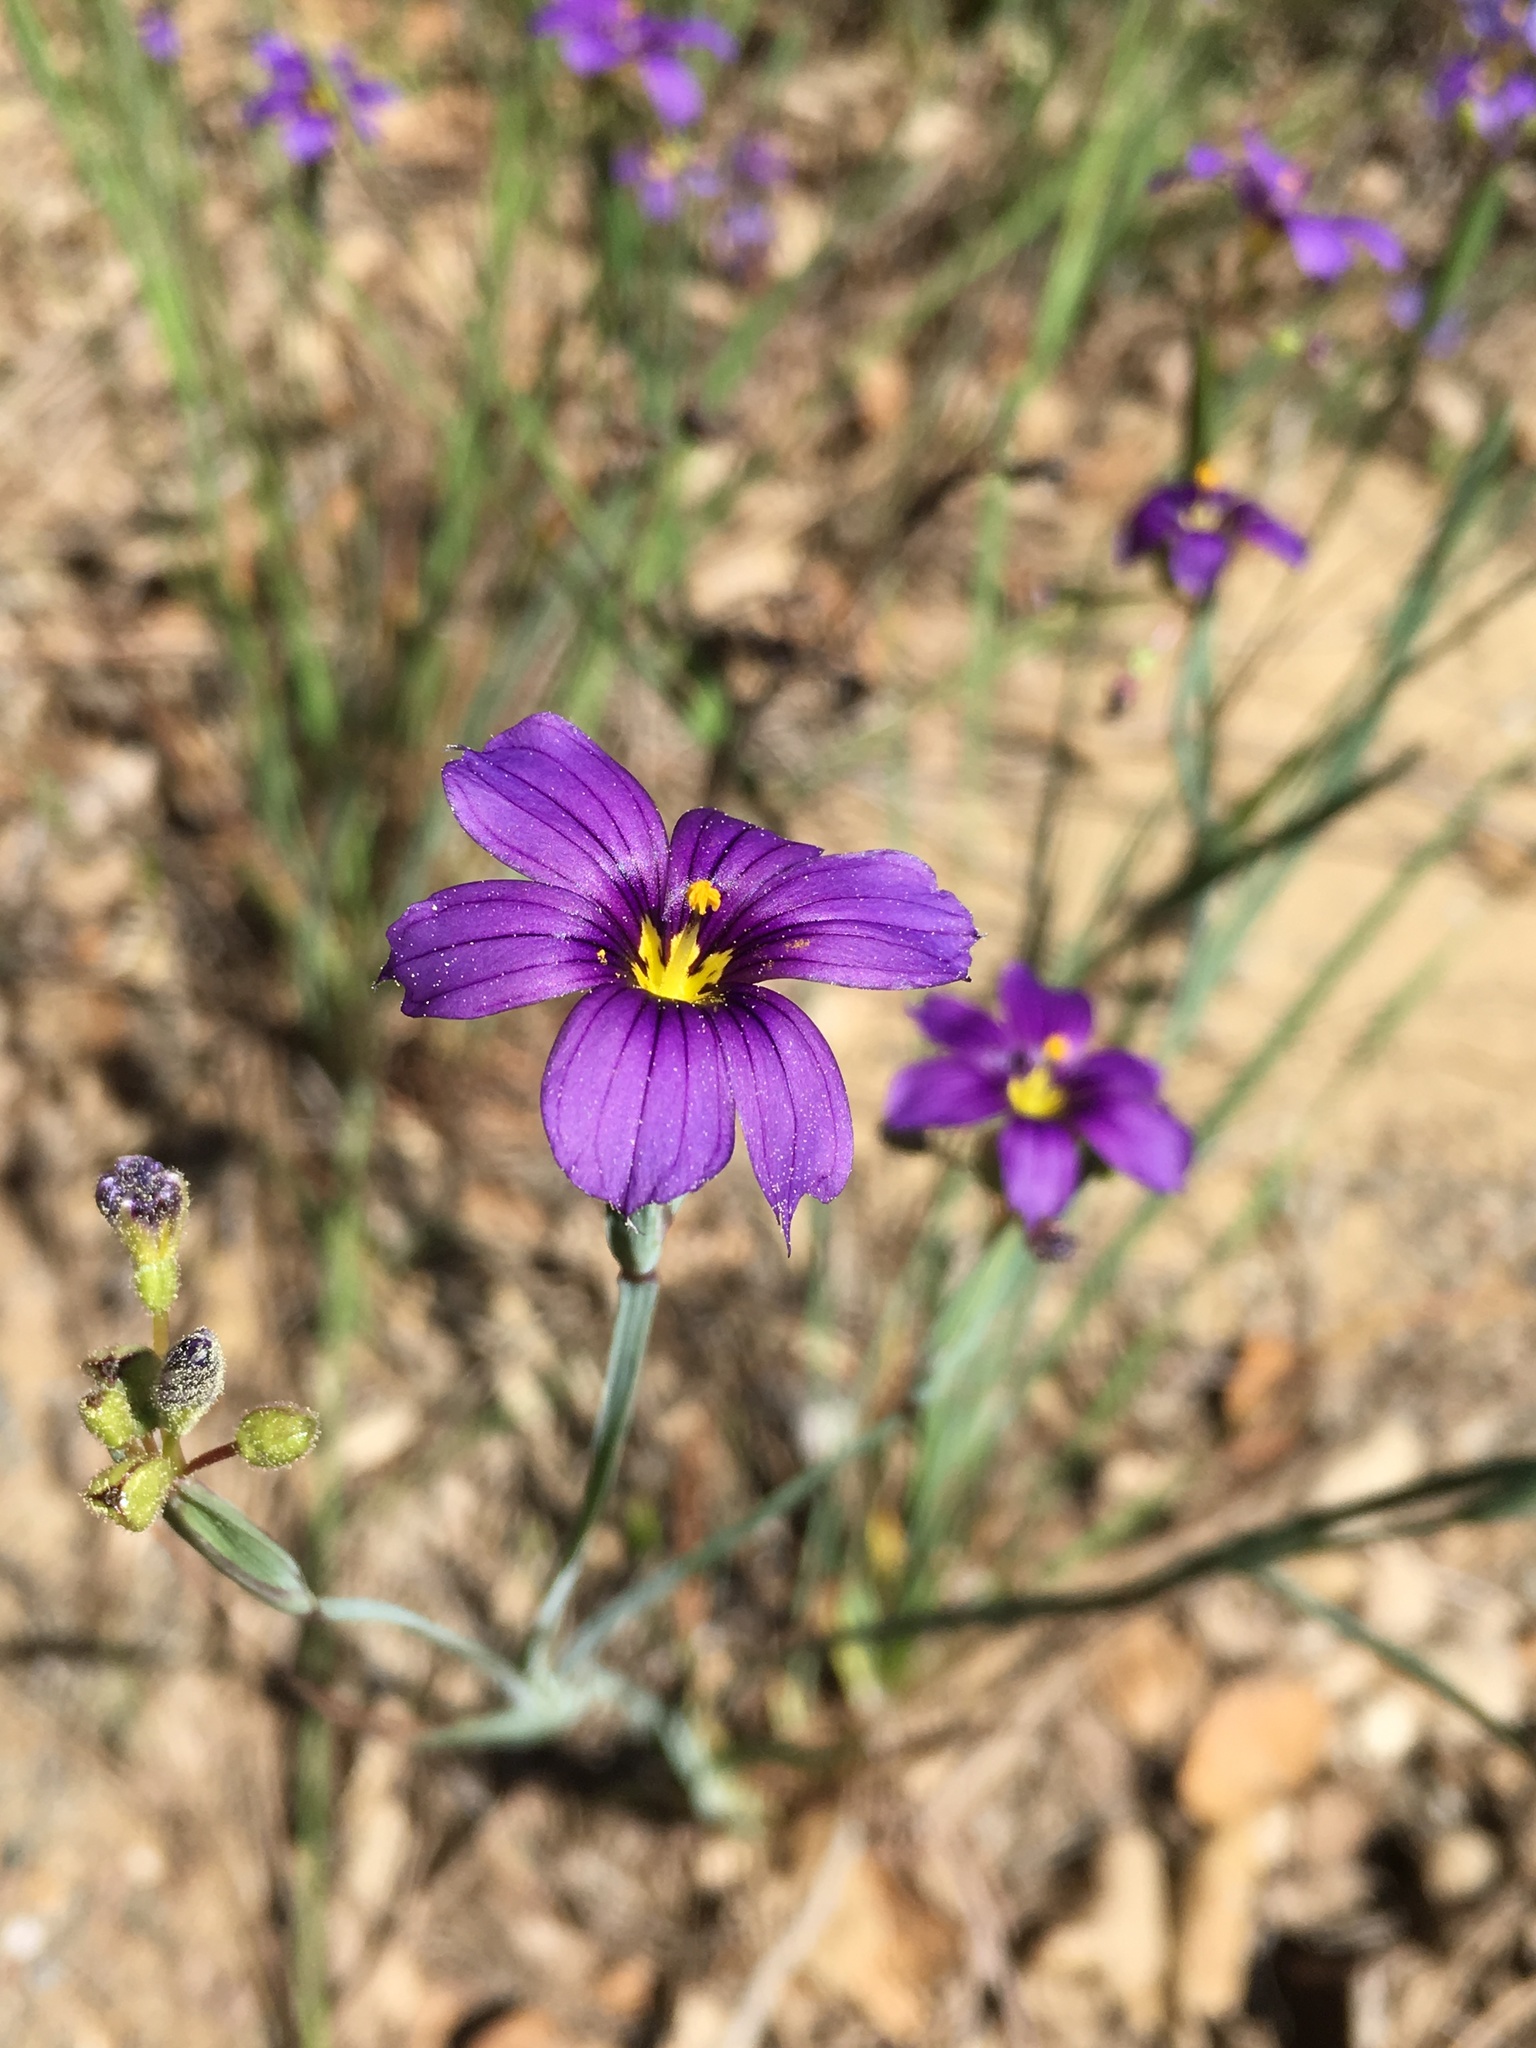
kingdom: Plantae
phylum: Tracheophyta
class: Liliopsida
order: Asparagales
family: Iridaceae
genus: Sisyrinchium
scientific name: Sisyrinchium bellum
